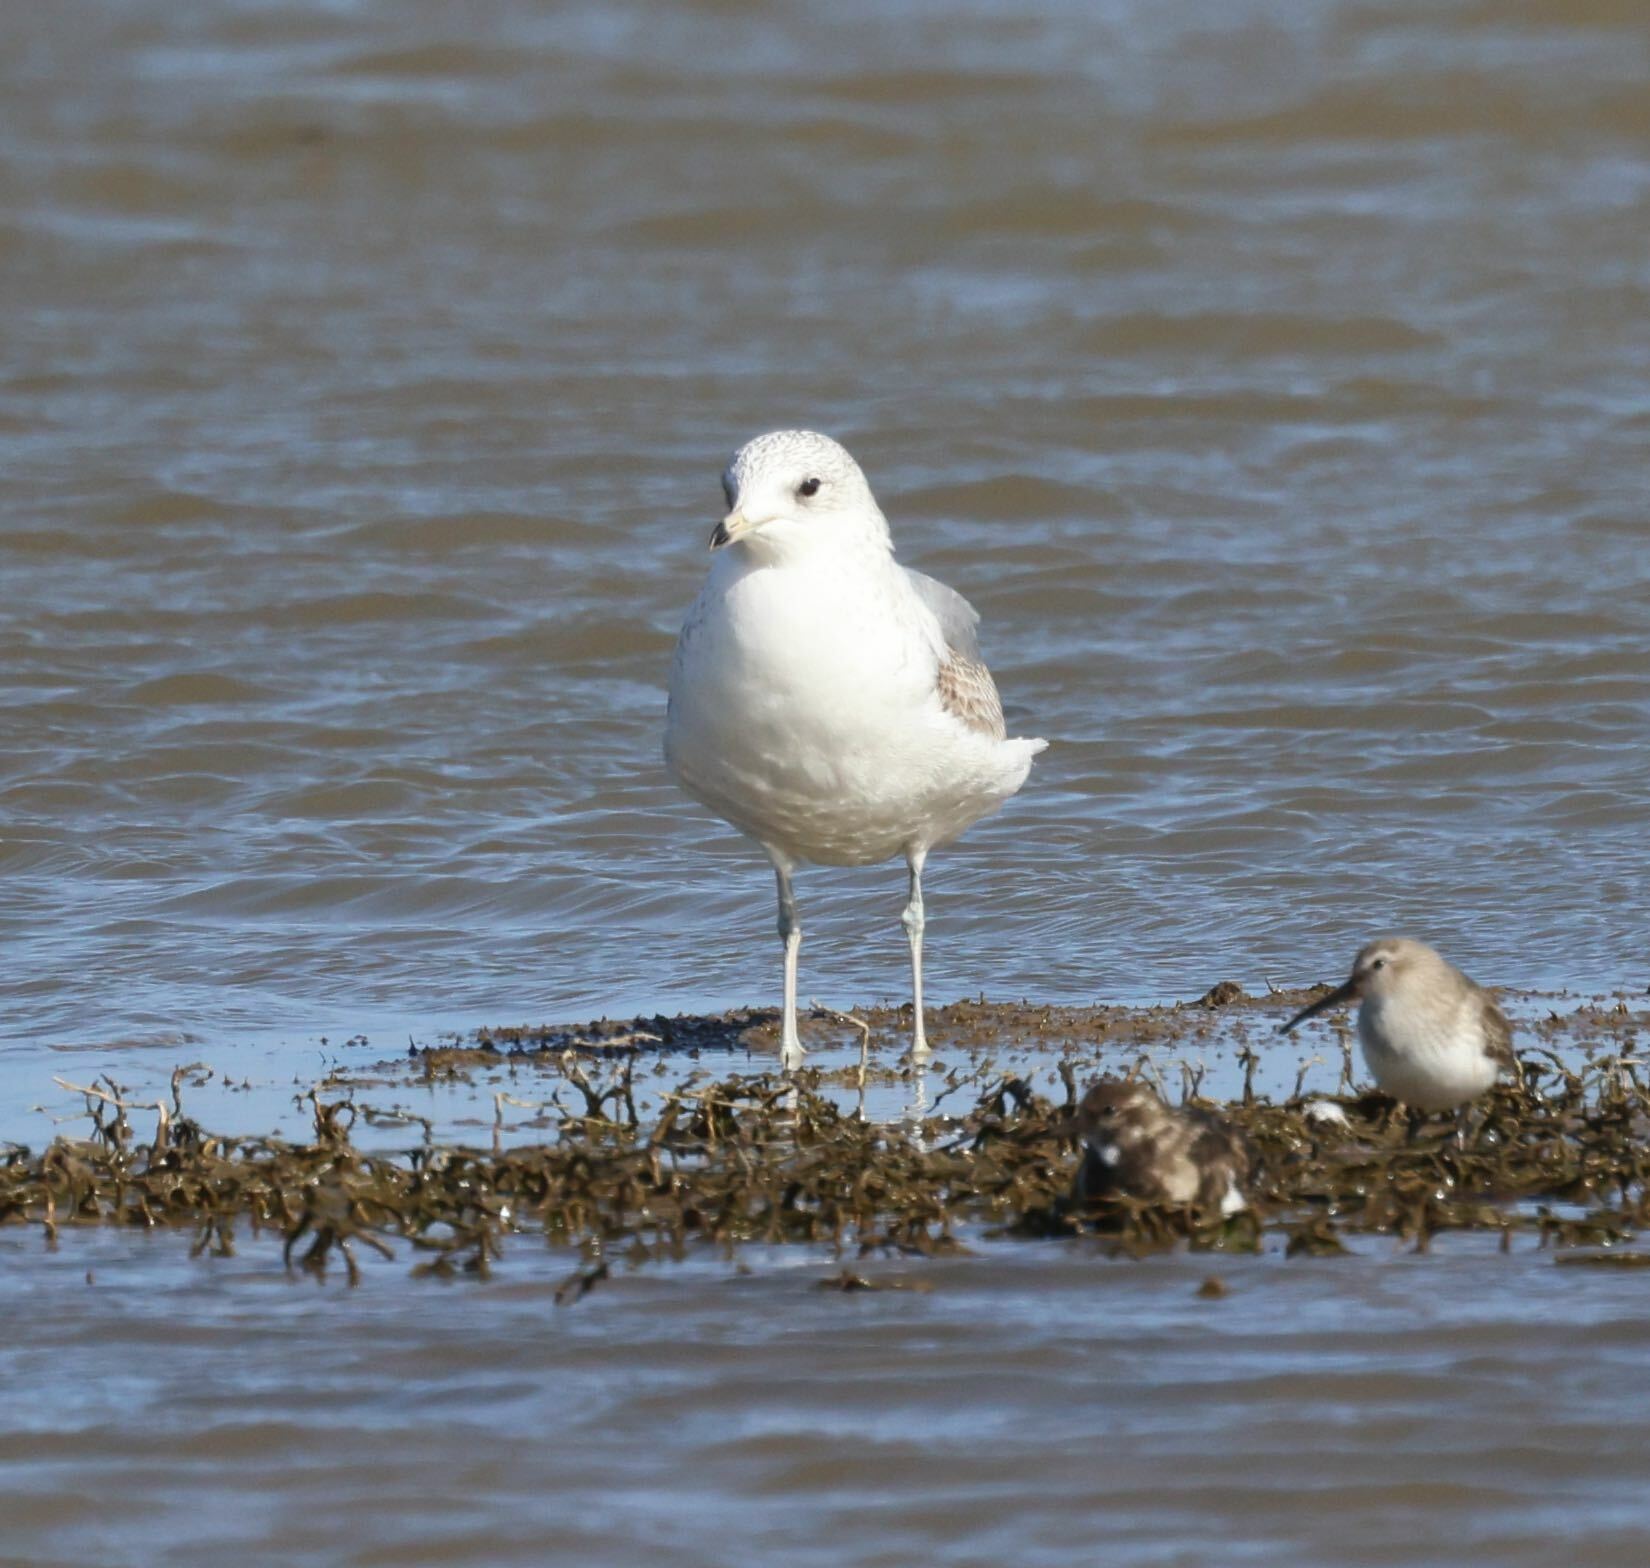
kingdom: Animalia
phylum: Chordata
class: Aves
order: Charadriiformes
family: Laridae
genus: Larus
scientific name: Larus canus
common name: Mew gull
